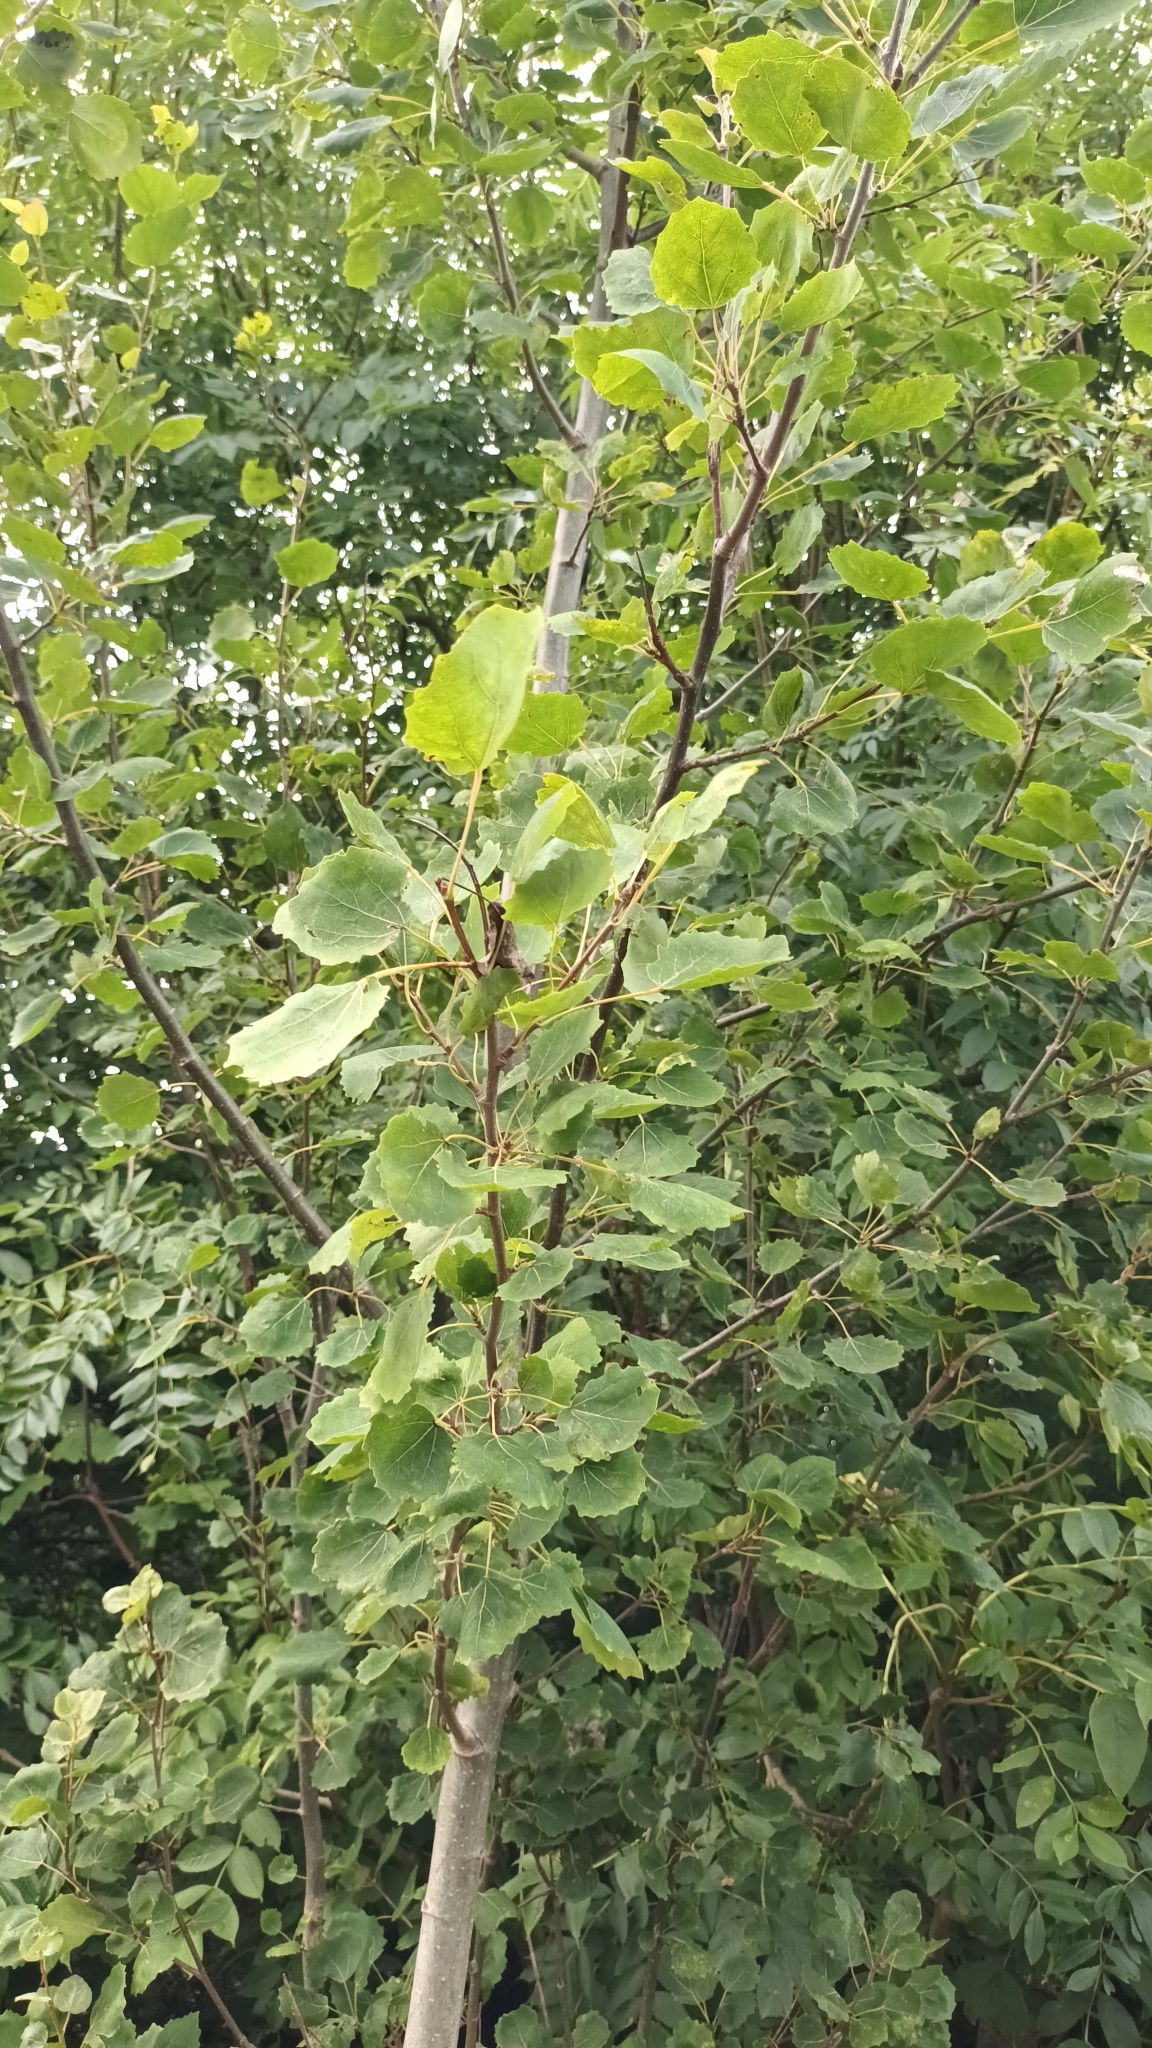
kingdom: Plantae
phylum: Tracheophyta
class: Magnoliopsida
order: Malpighiales
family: Salicaceae
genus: Populus
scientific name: Populus tremula
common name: European aspen
